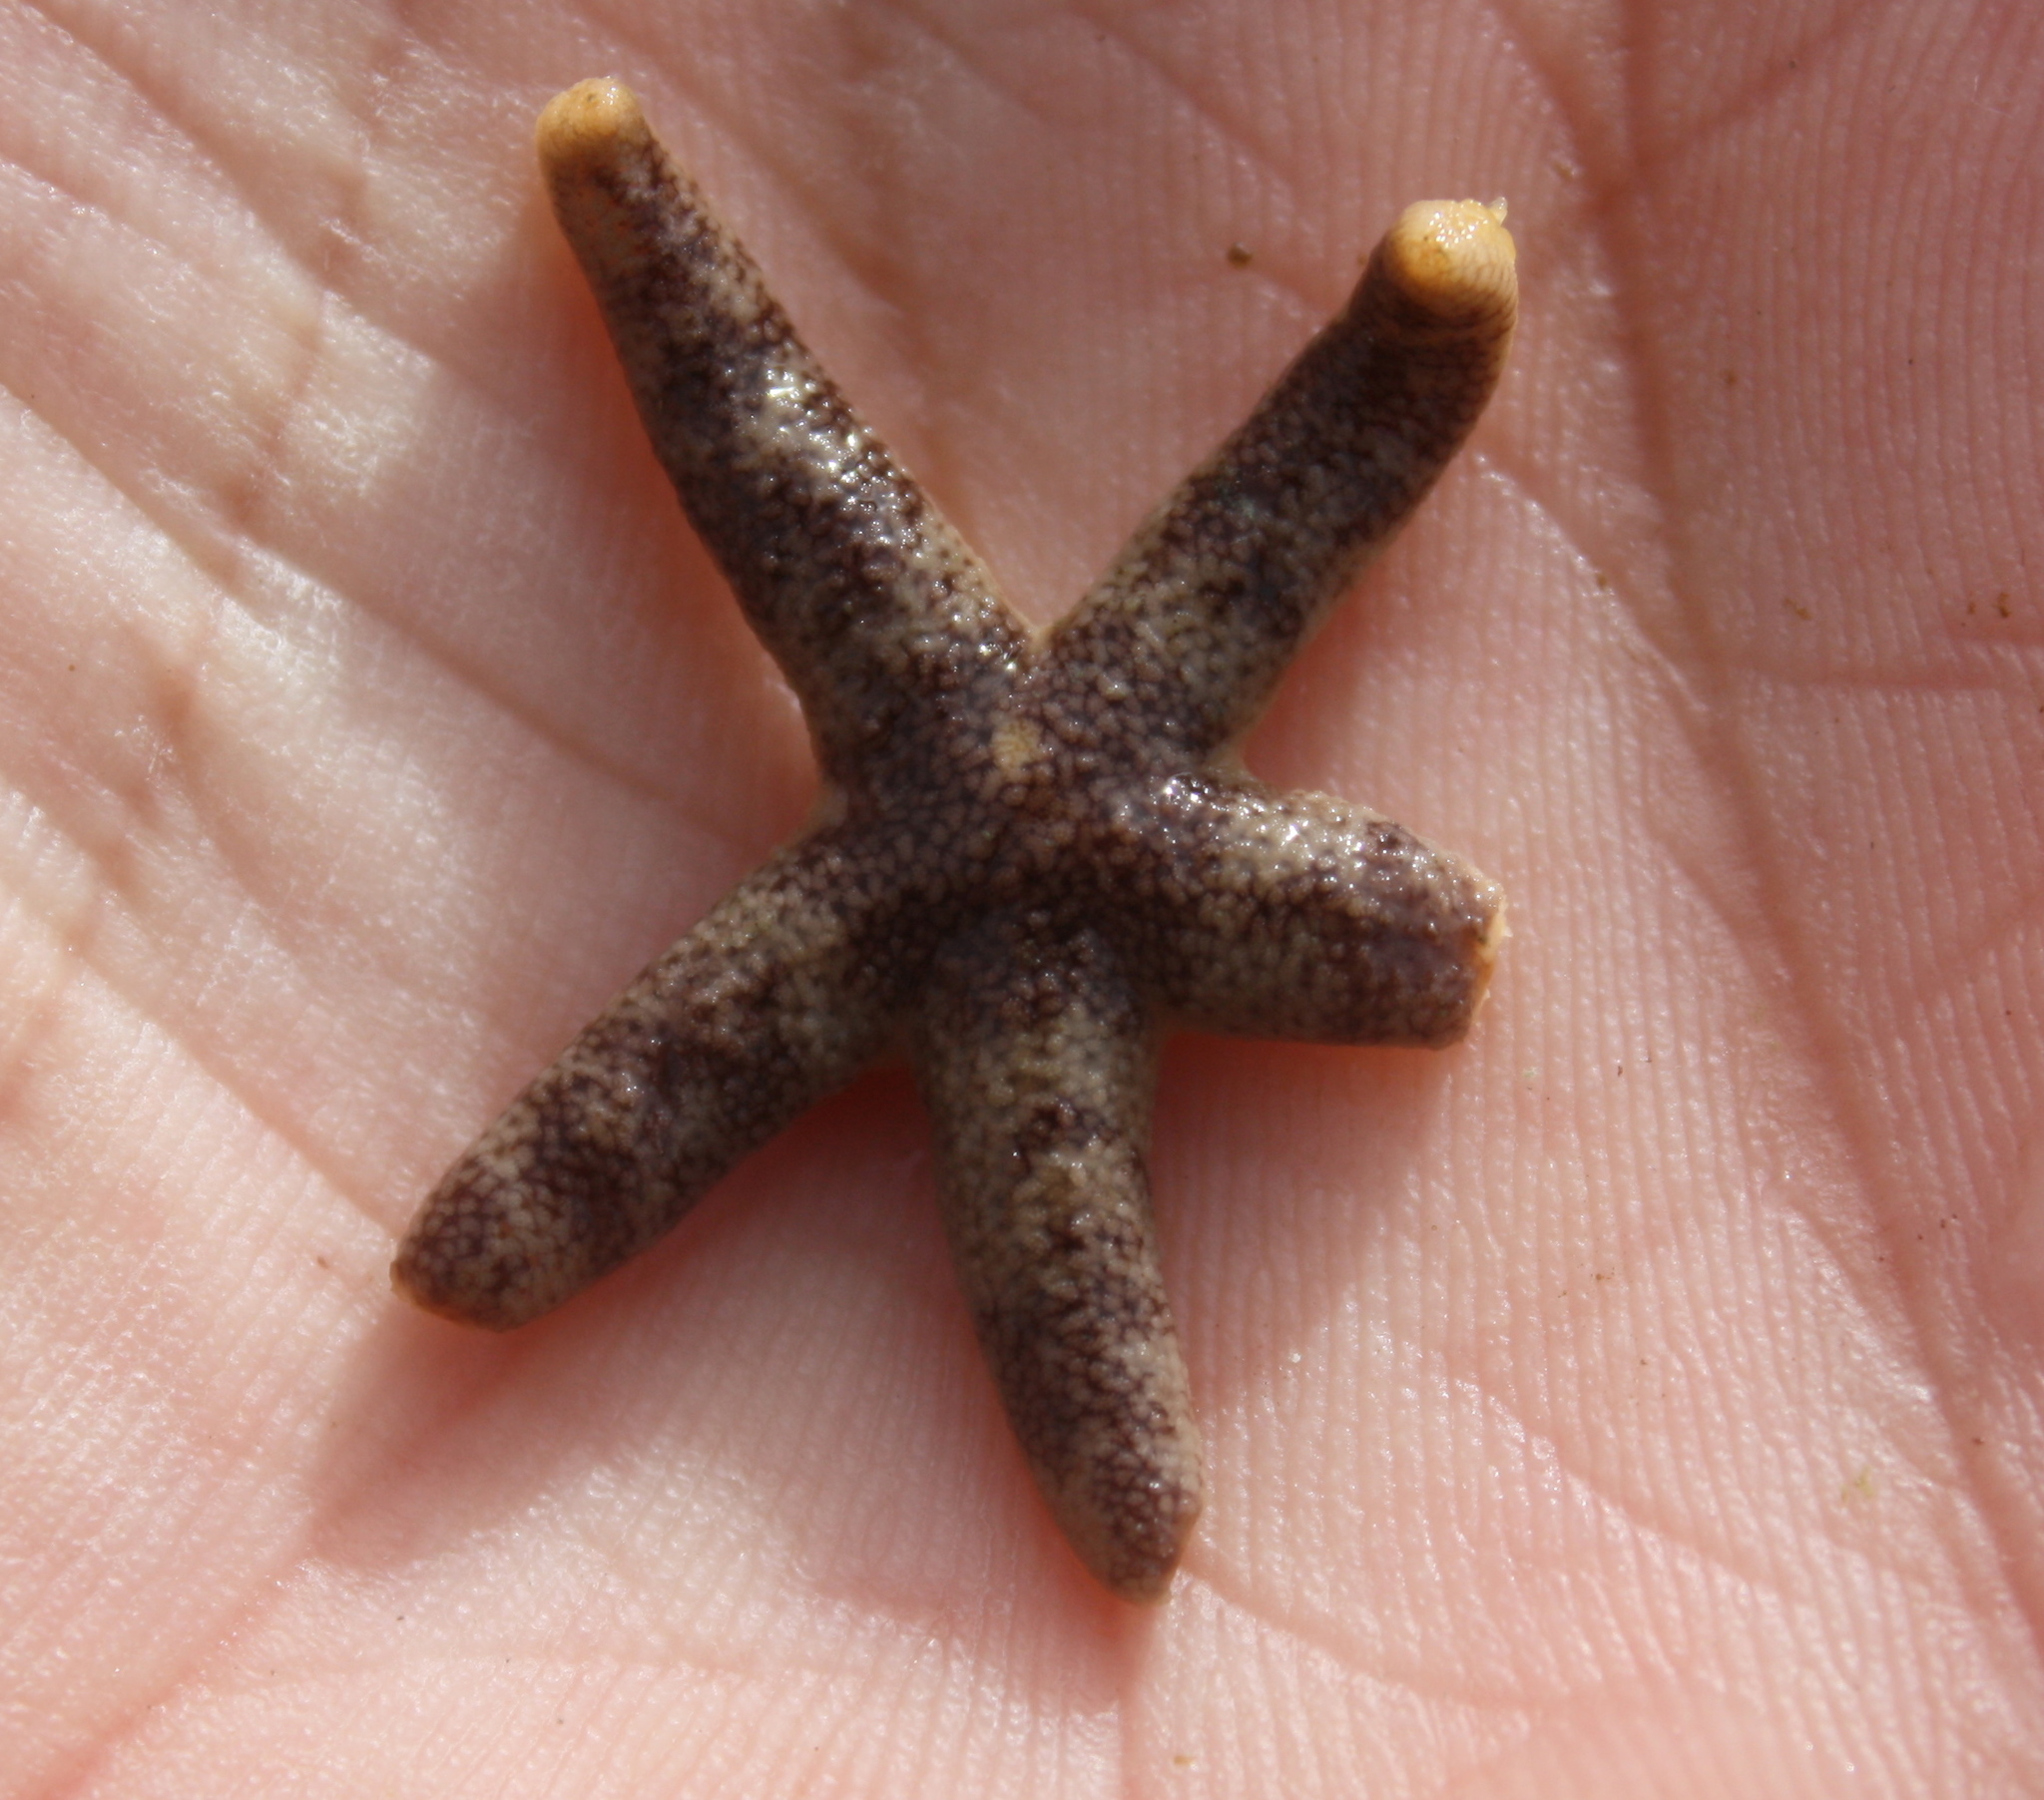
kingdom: Animalia
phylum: Echinodermata
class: Asteroidea
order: Spinulosida
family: Echinasteridae
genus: Henricia
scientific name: Henricia pumila
